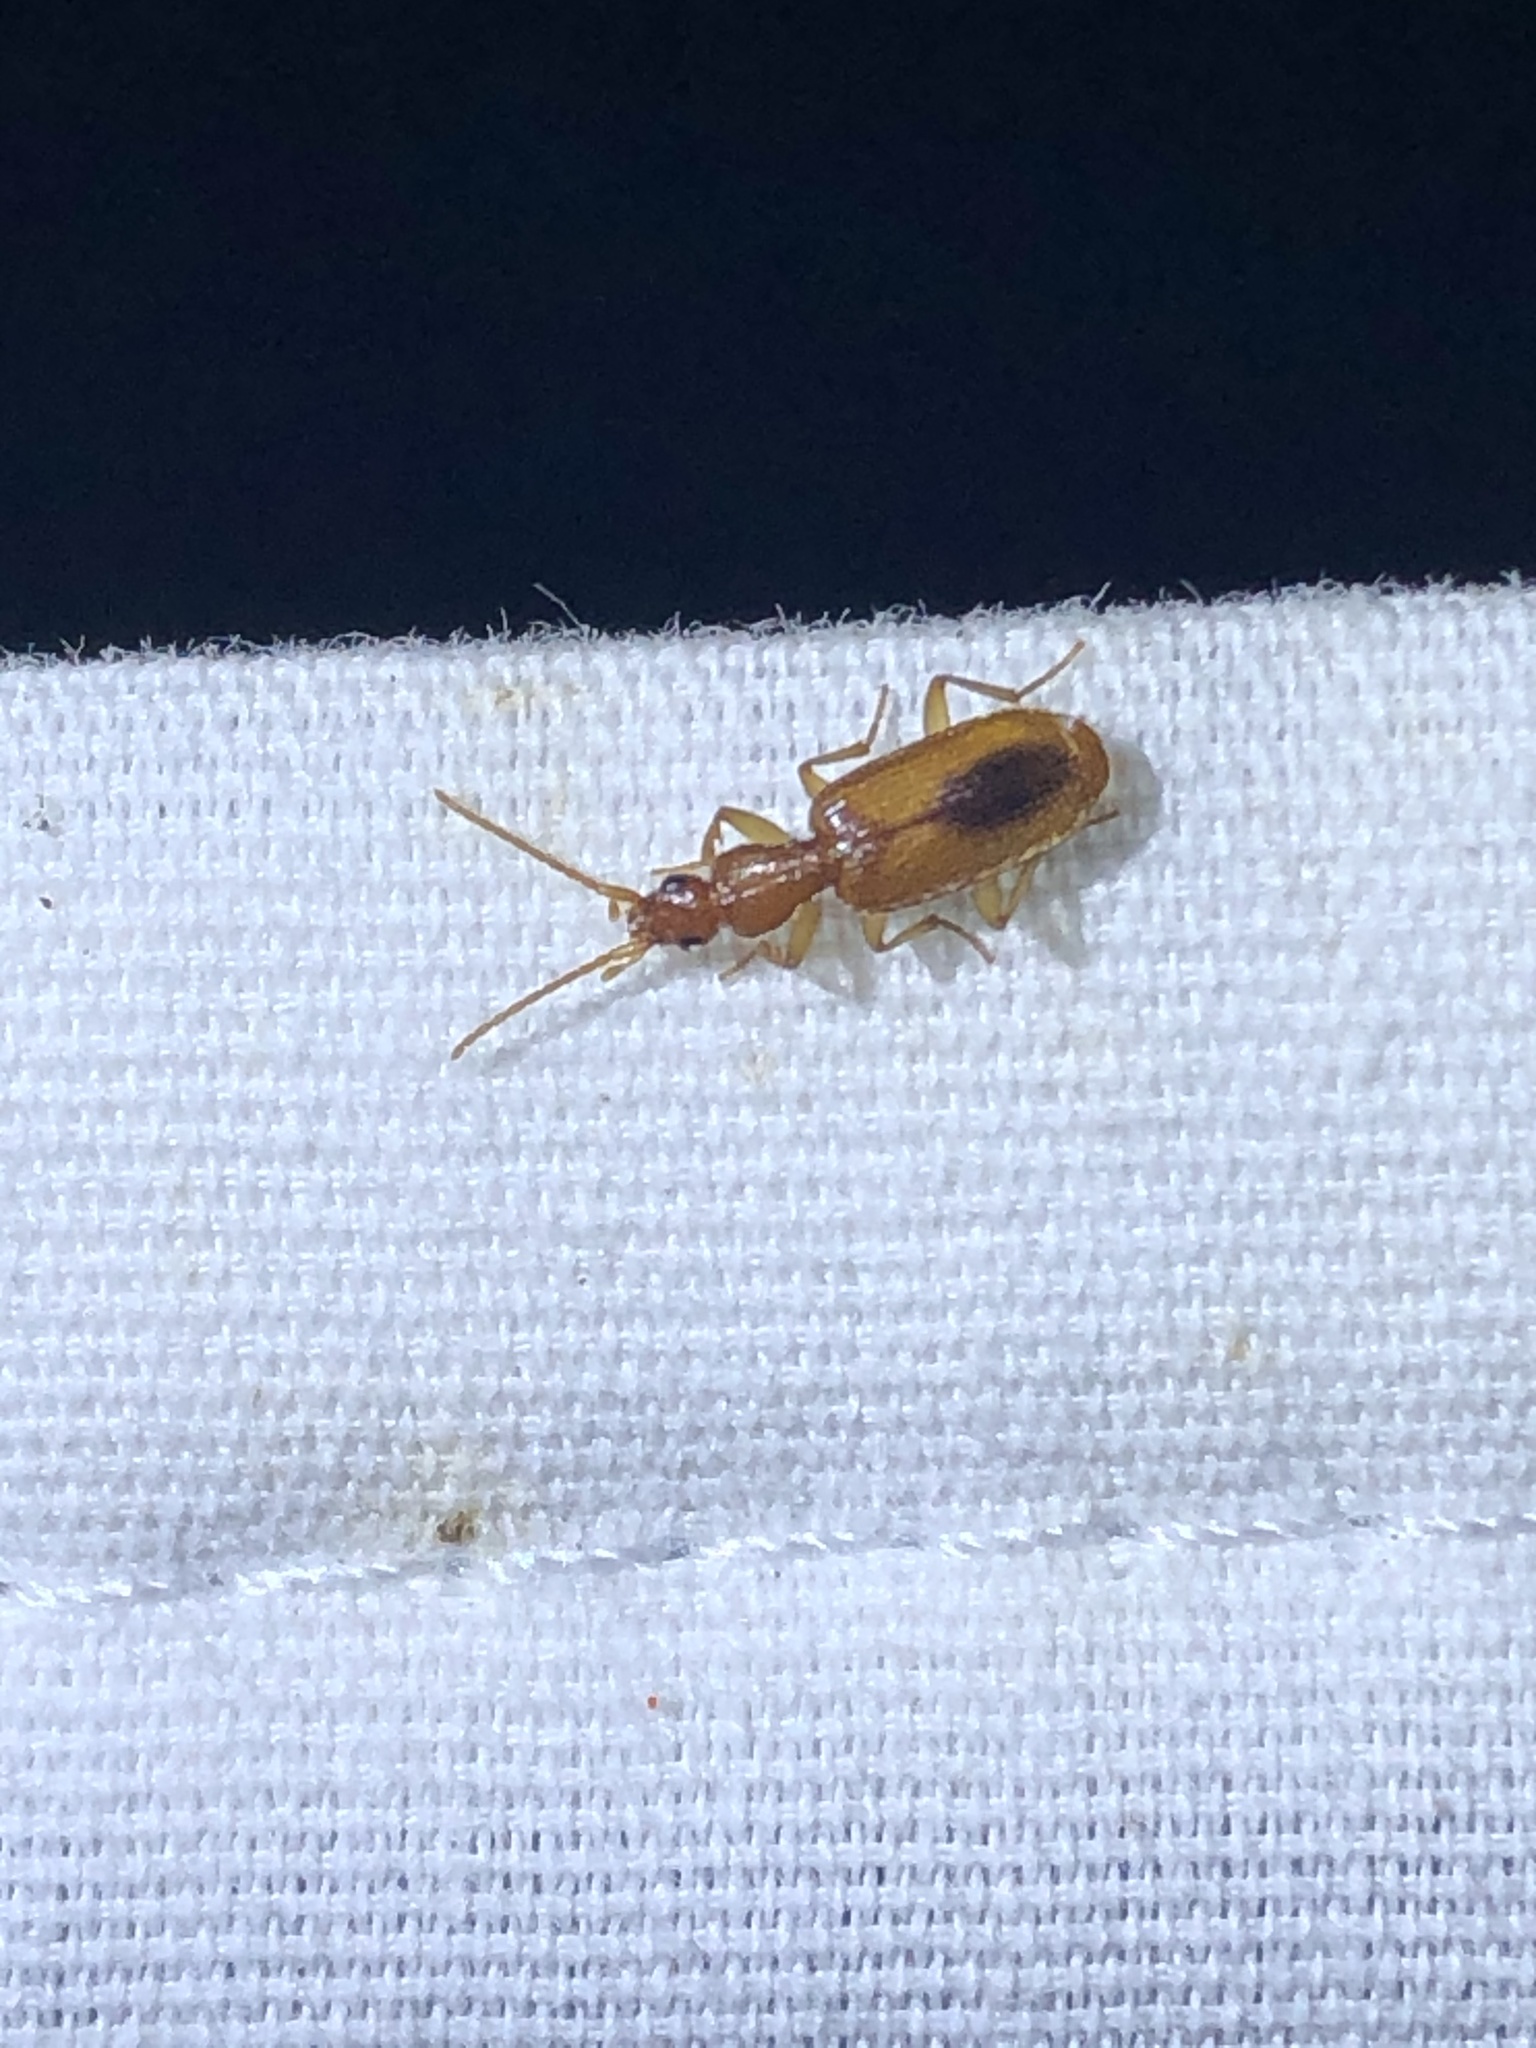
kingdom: Animalia
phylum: Arthropoda
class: Insecta
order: Coleoptera
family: Carabidae
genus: Pseudaptinus
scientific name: Pseudaptinus horni
